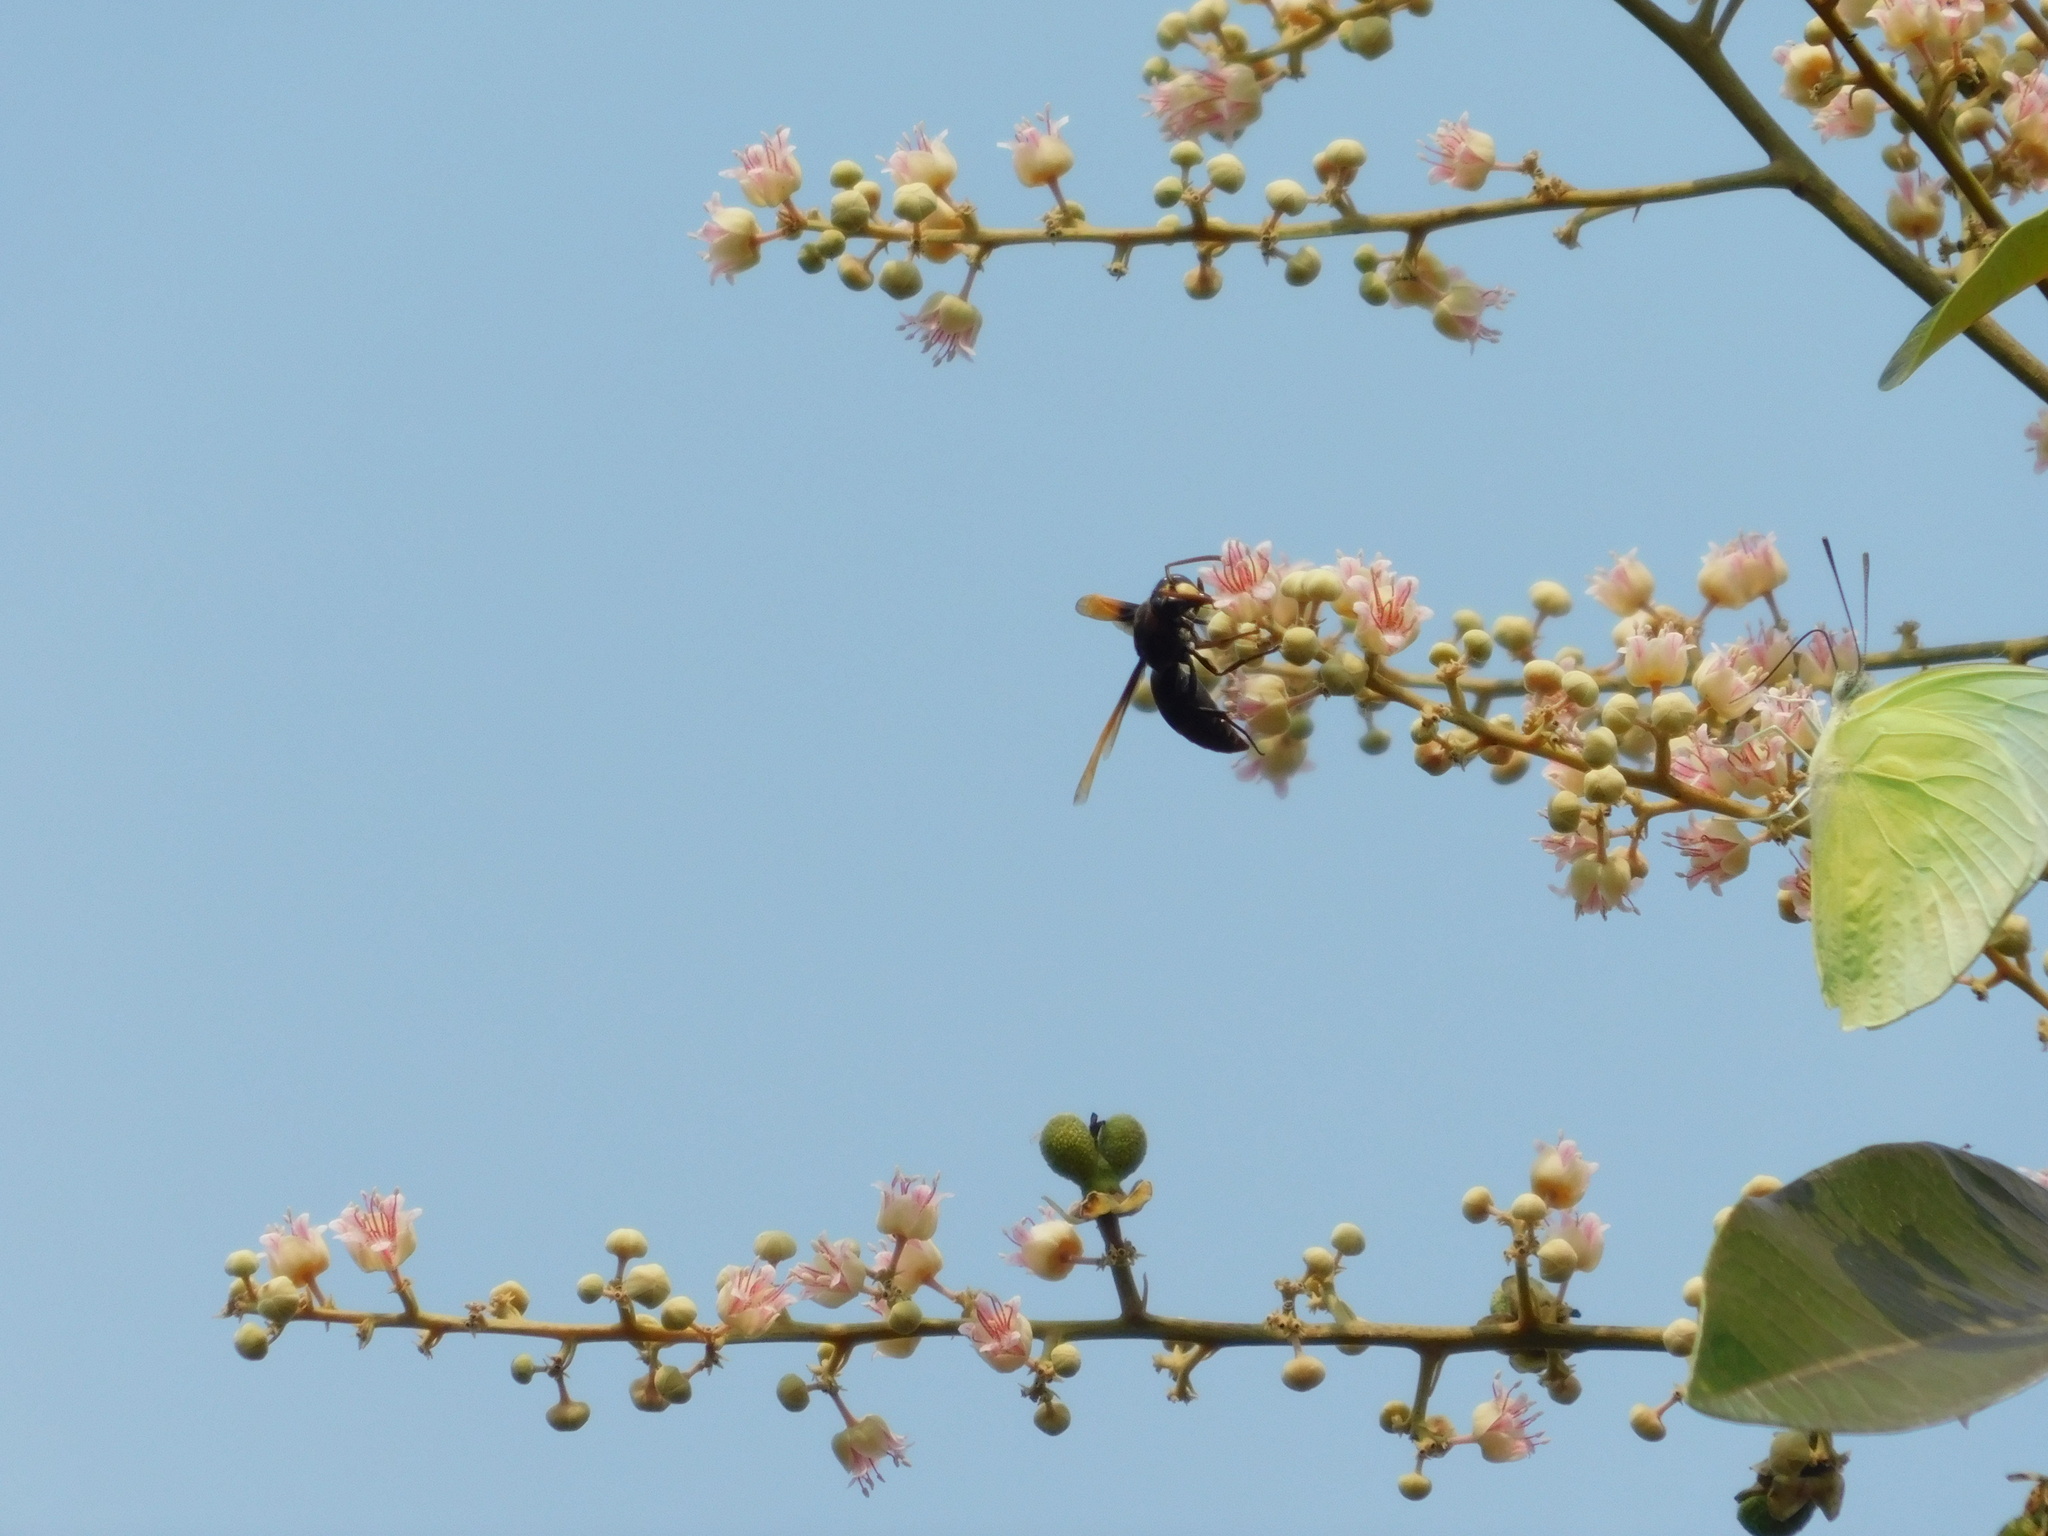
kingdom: Animalia
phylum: Arthropoda
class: Insecta
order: Hymenoptera
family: Eumenidae
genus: Rhynchium
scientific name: Rhynchium haemorrhoidale
